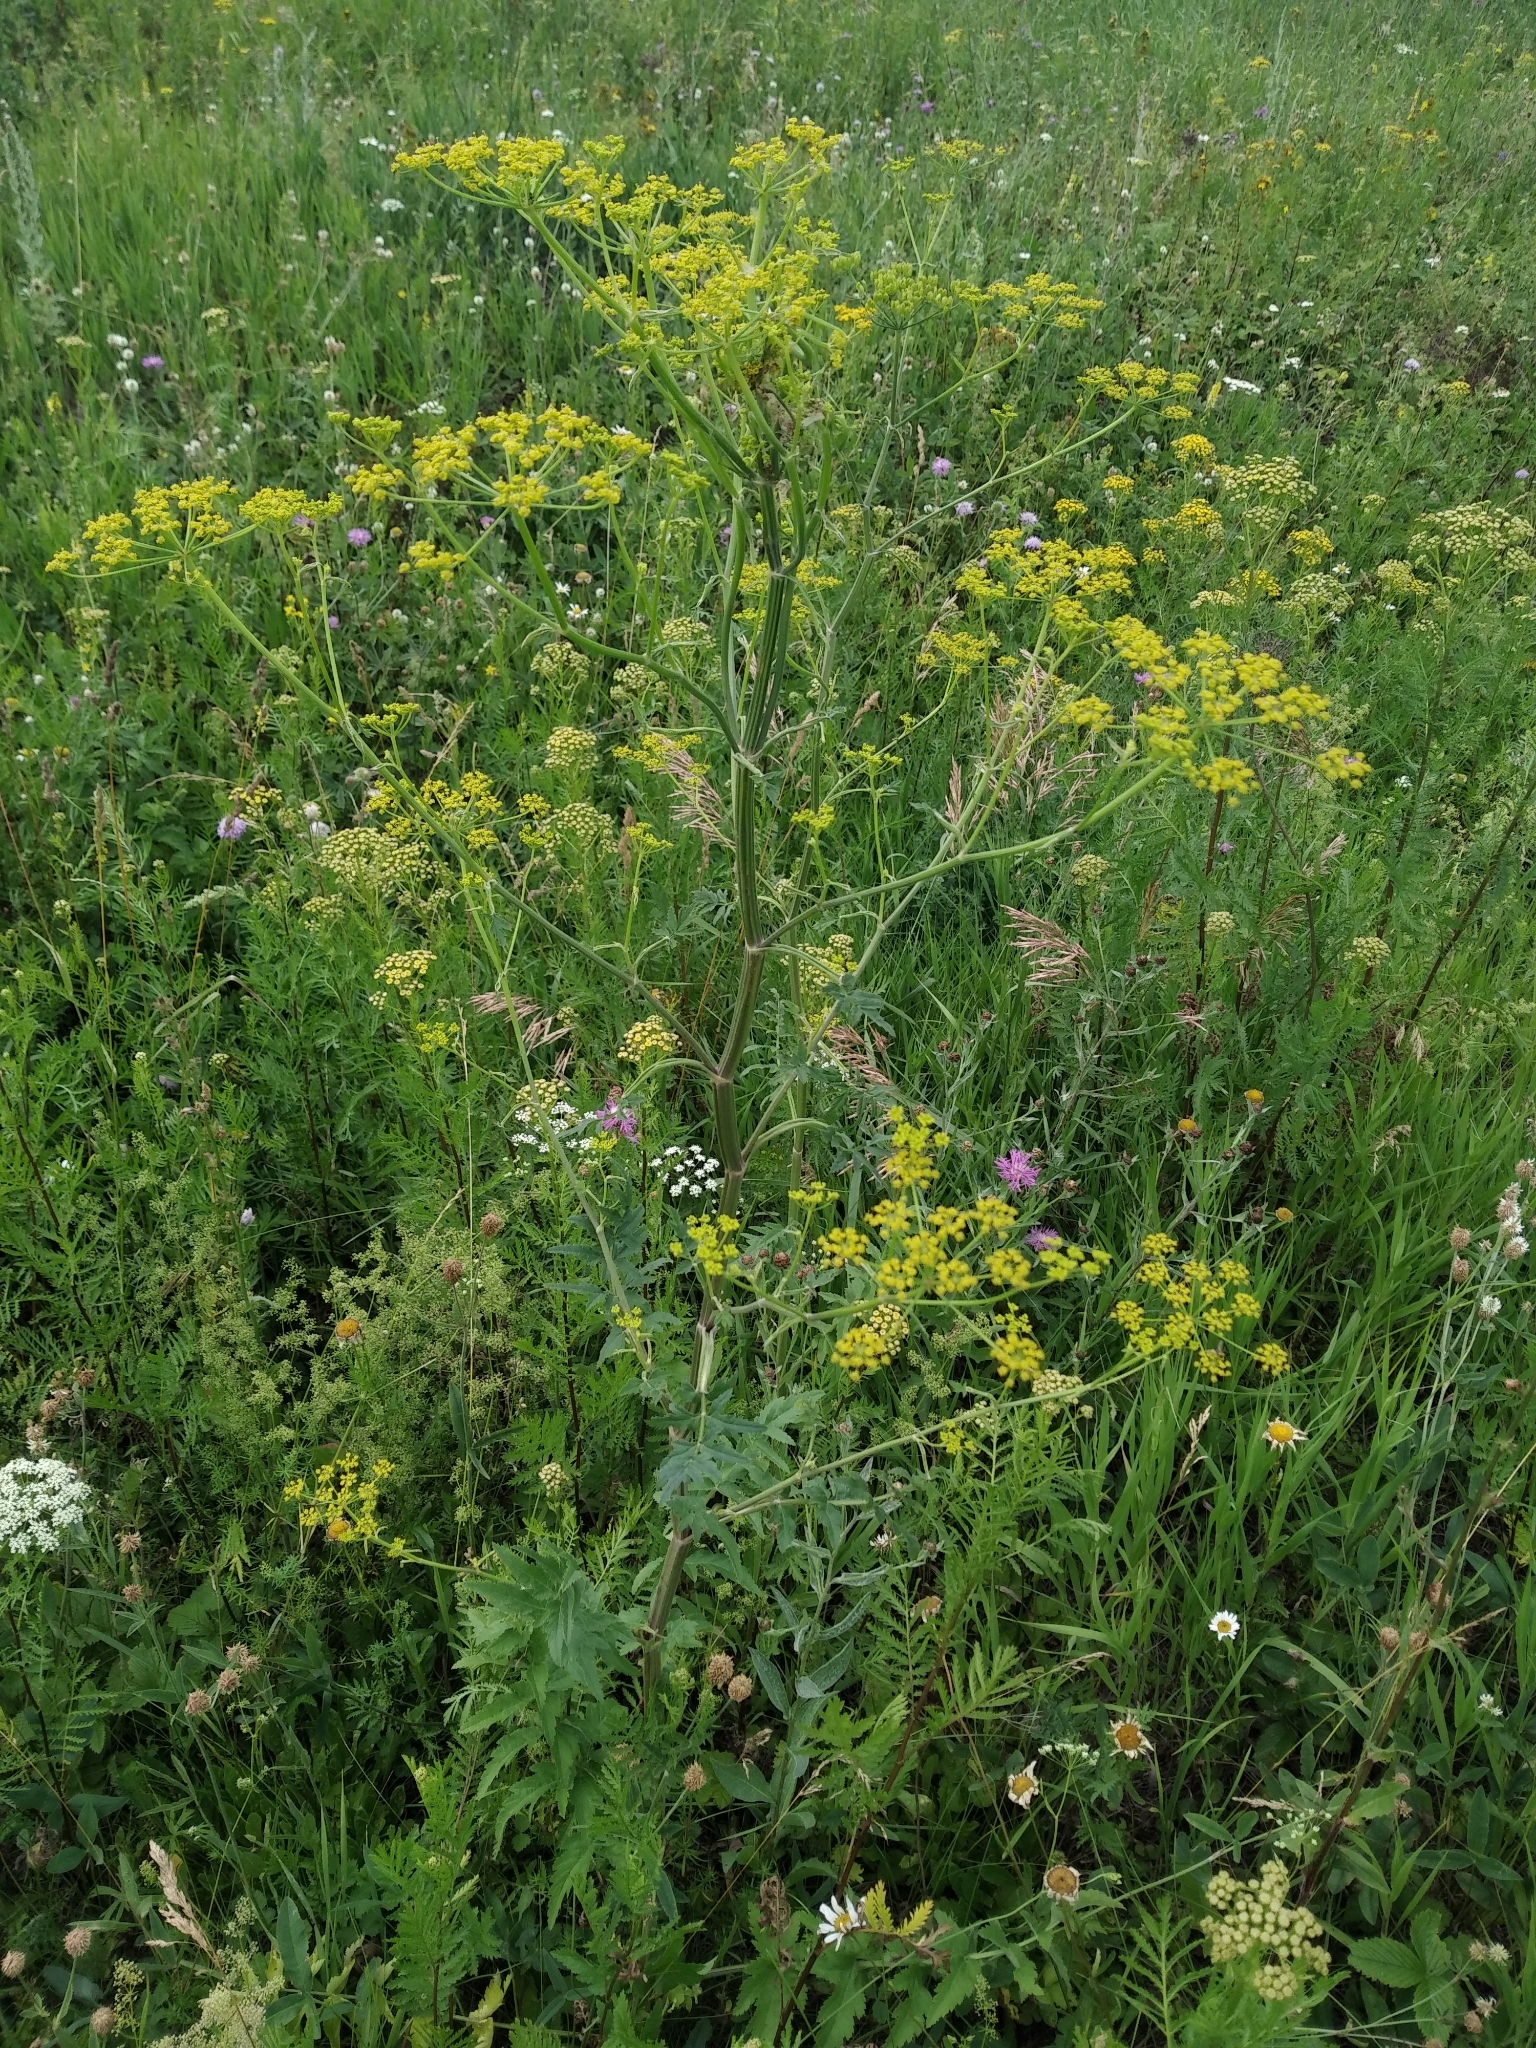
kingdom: Plantae
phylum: Tracheophyta
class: Magnoliopsida
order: Apiales
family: Apiaceae
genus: Pastinaca
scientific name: Pastinaca sativa
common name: Wild parsnip
